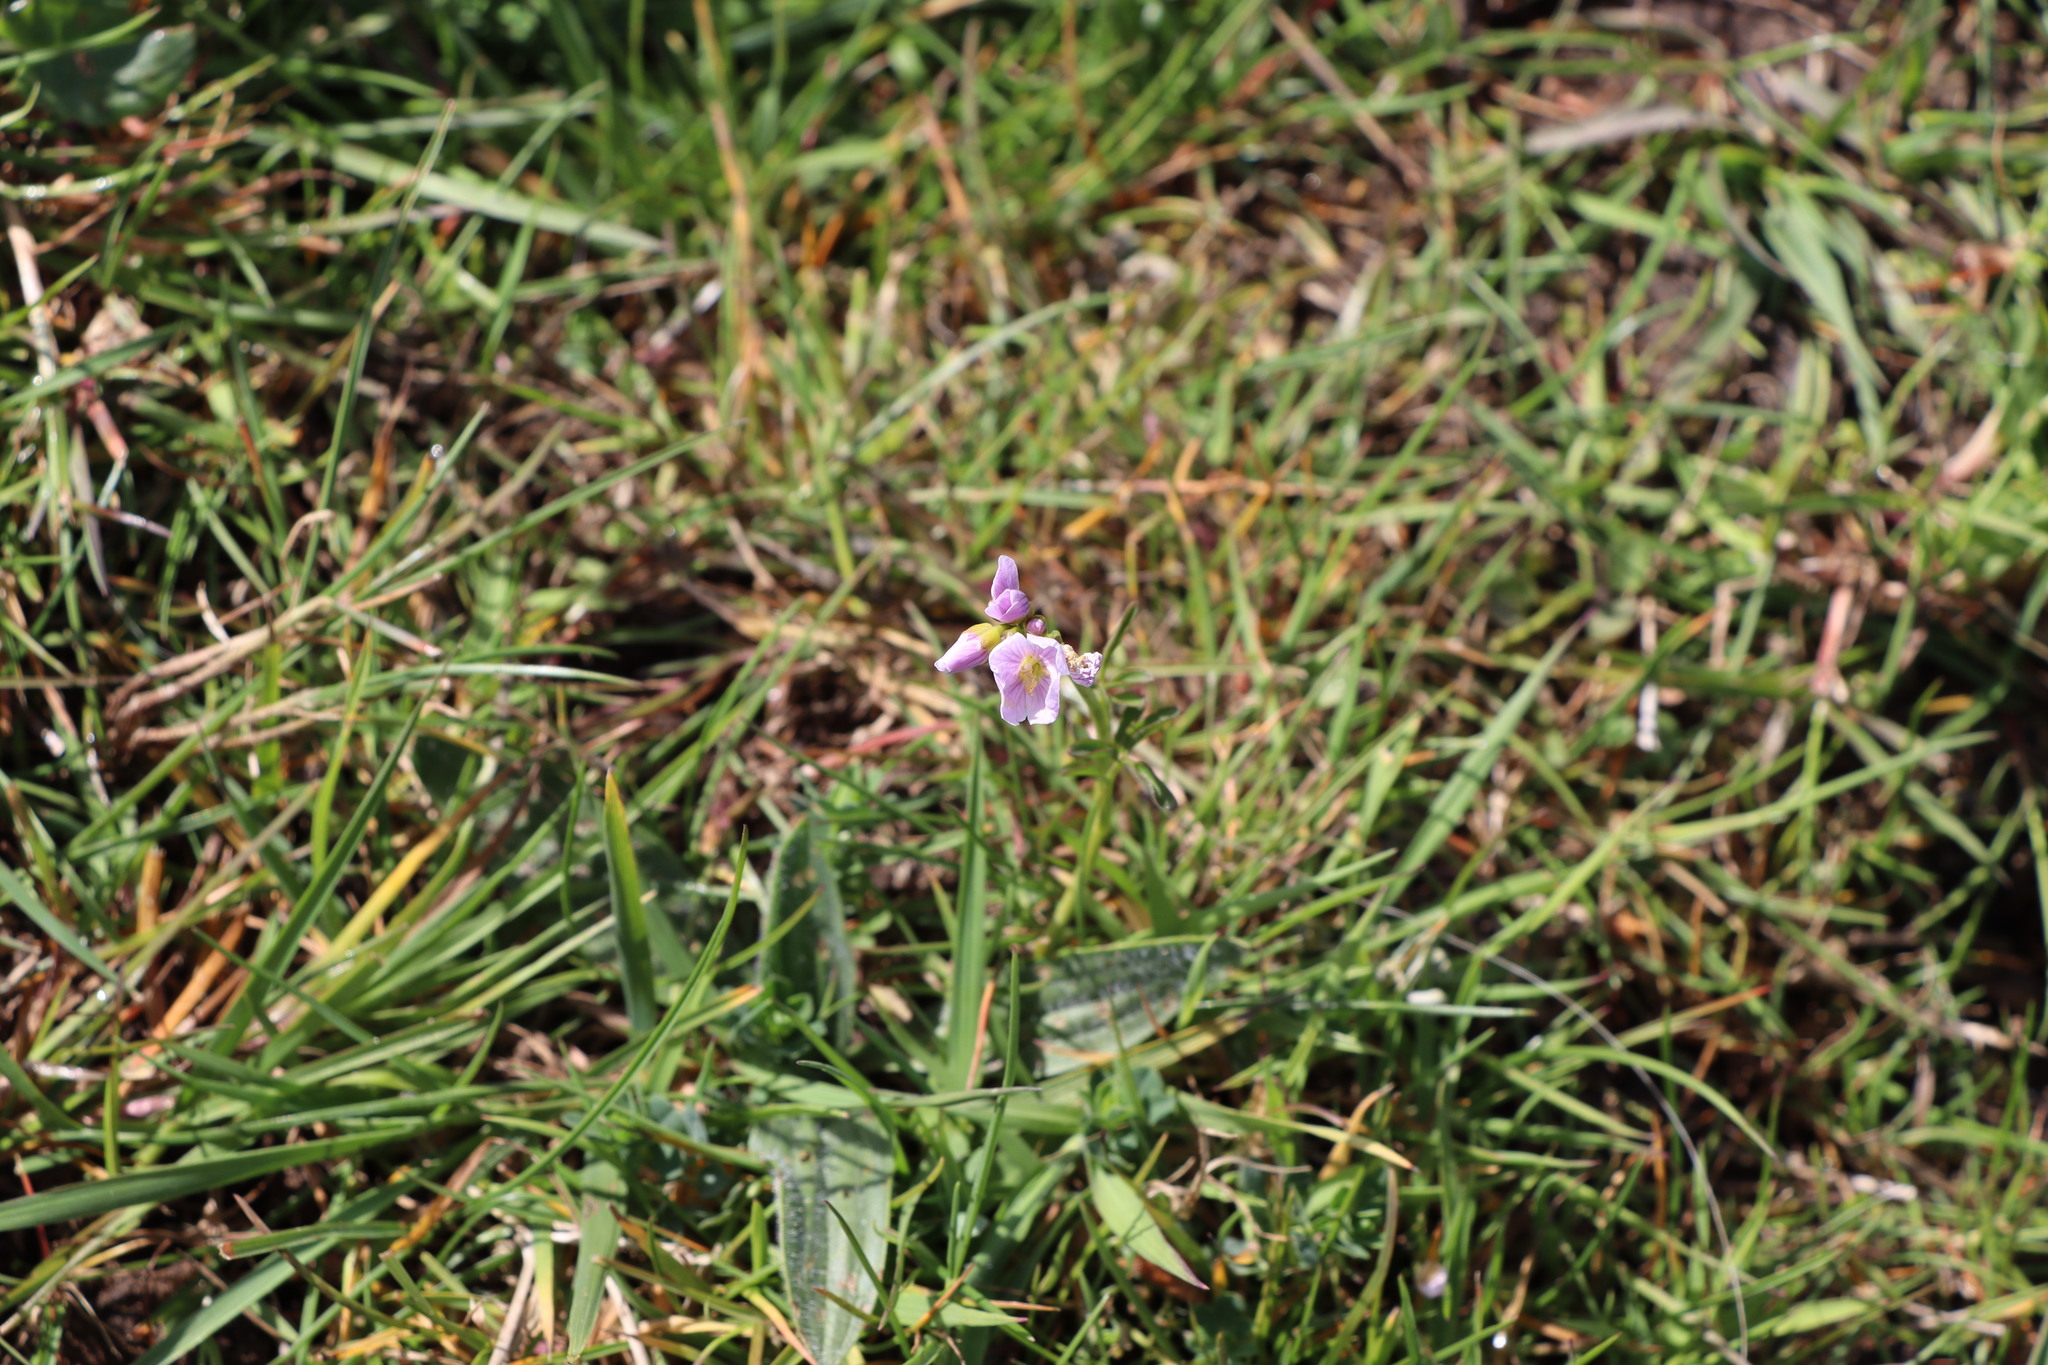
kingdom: Plantae
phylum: Tracheophyta
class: Magnoliopsida
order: Brassicales
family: Brassicaceae
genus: Cardamine
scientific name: Cardamine pratensis
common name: Cuckoo flower
